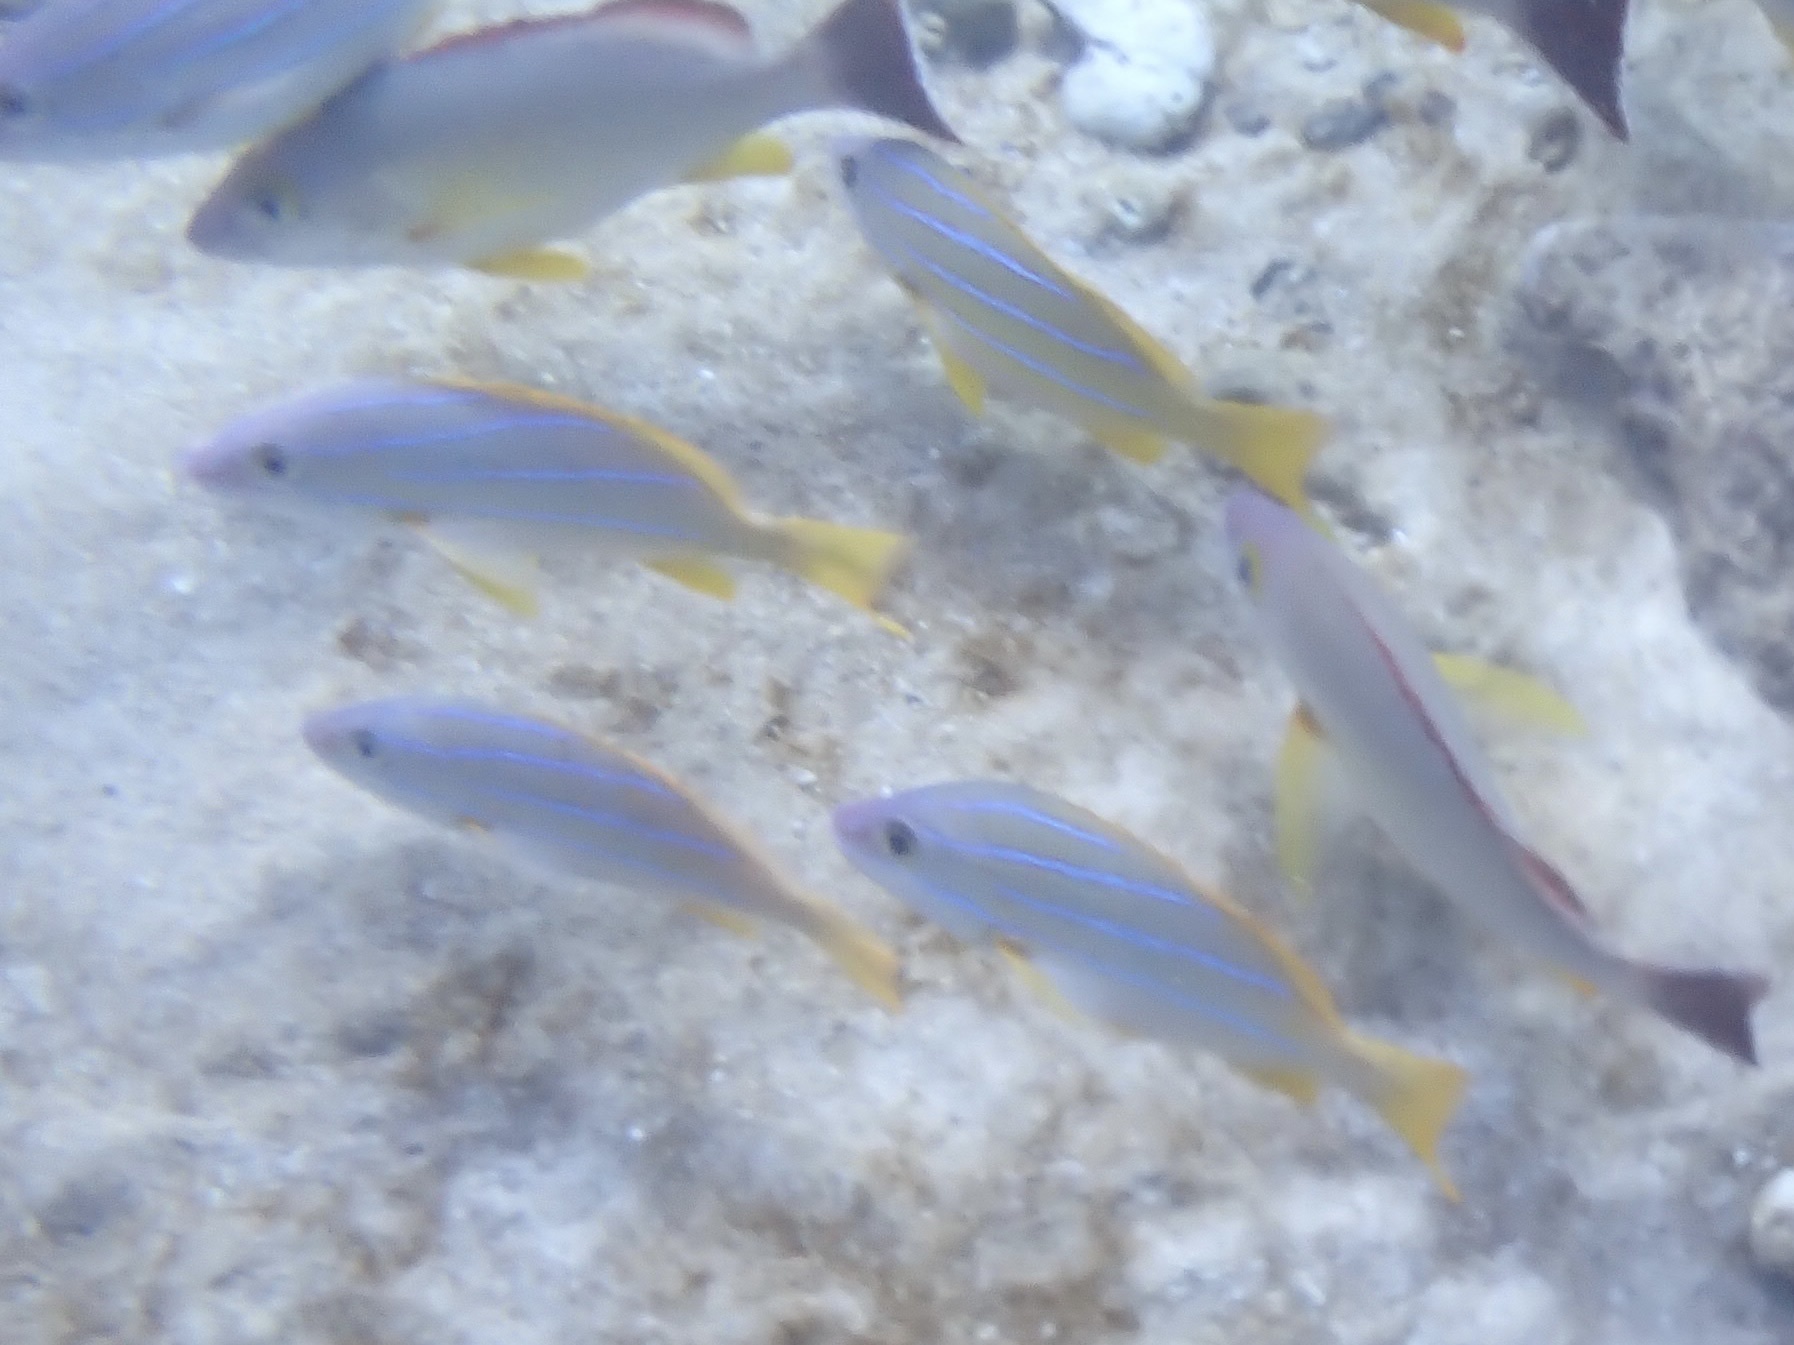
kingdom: Animalia
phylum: Chordata
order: Perciformes
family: Lutjanidae
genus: Lutjanus
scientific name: Lutjanus kasmira
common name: Common bluestripe snapper
